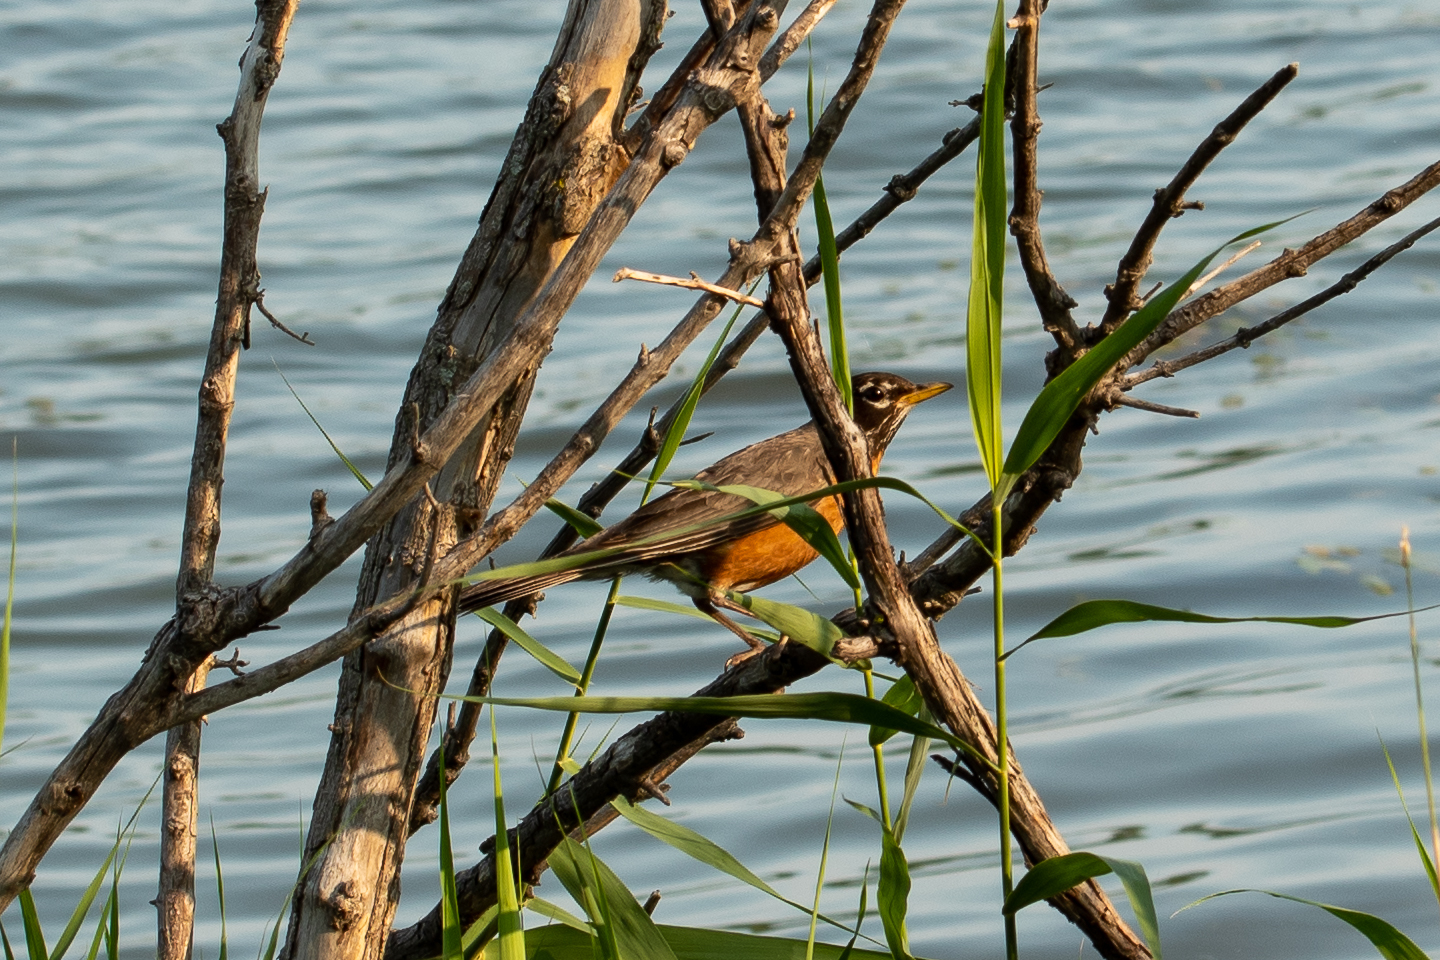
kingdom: Animalia
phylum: Chordata
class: Aves
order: Passeriformes
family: Turdidae
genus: Turdus
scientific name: Turdus migratorius
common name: American robin
